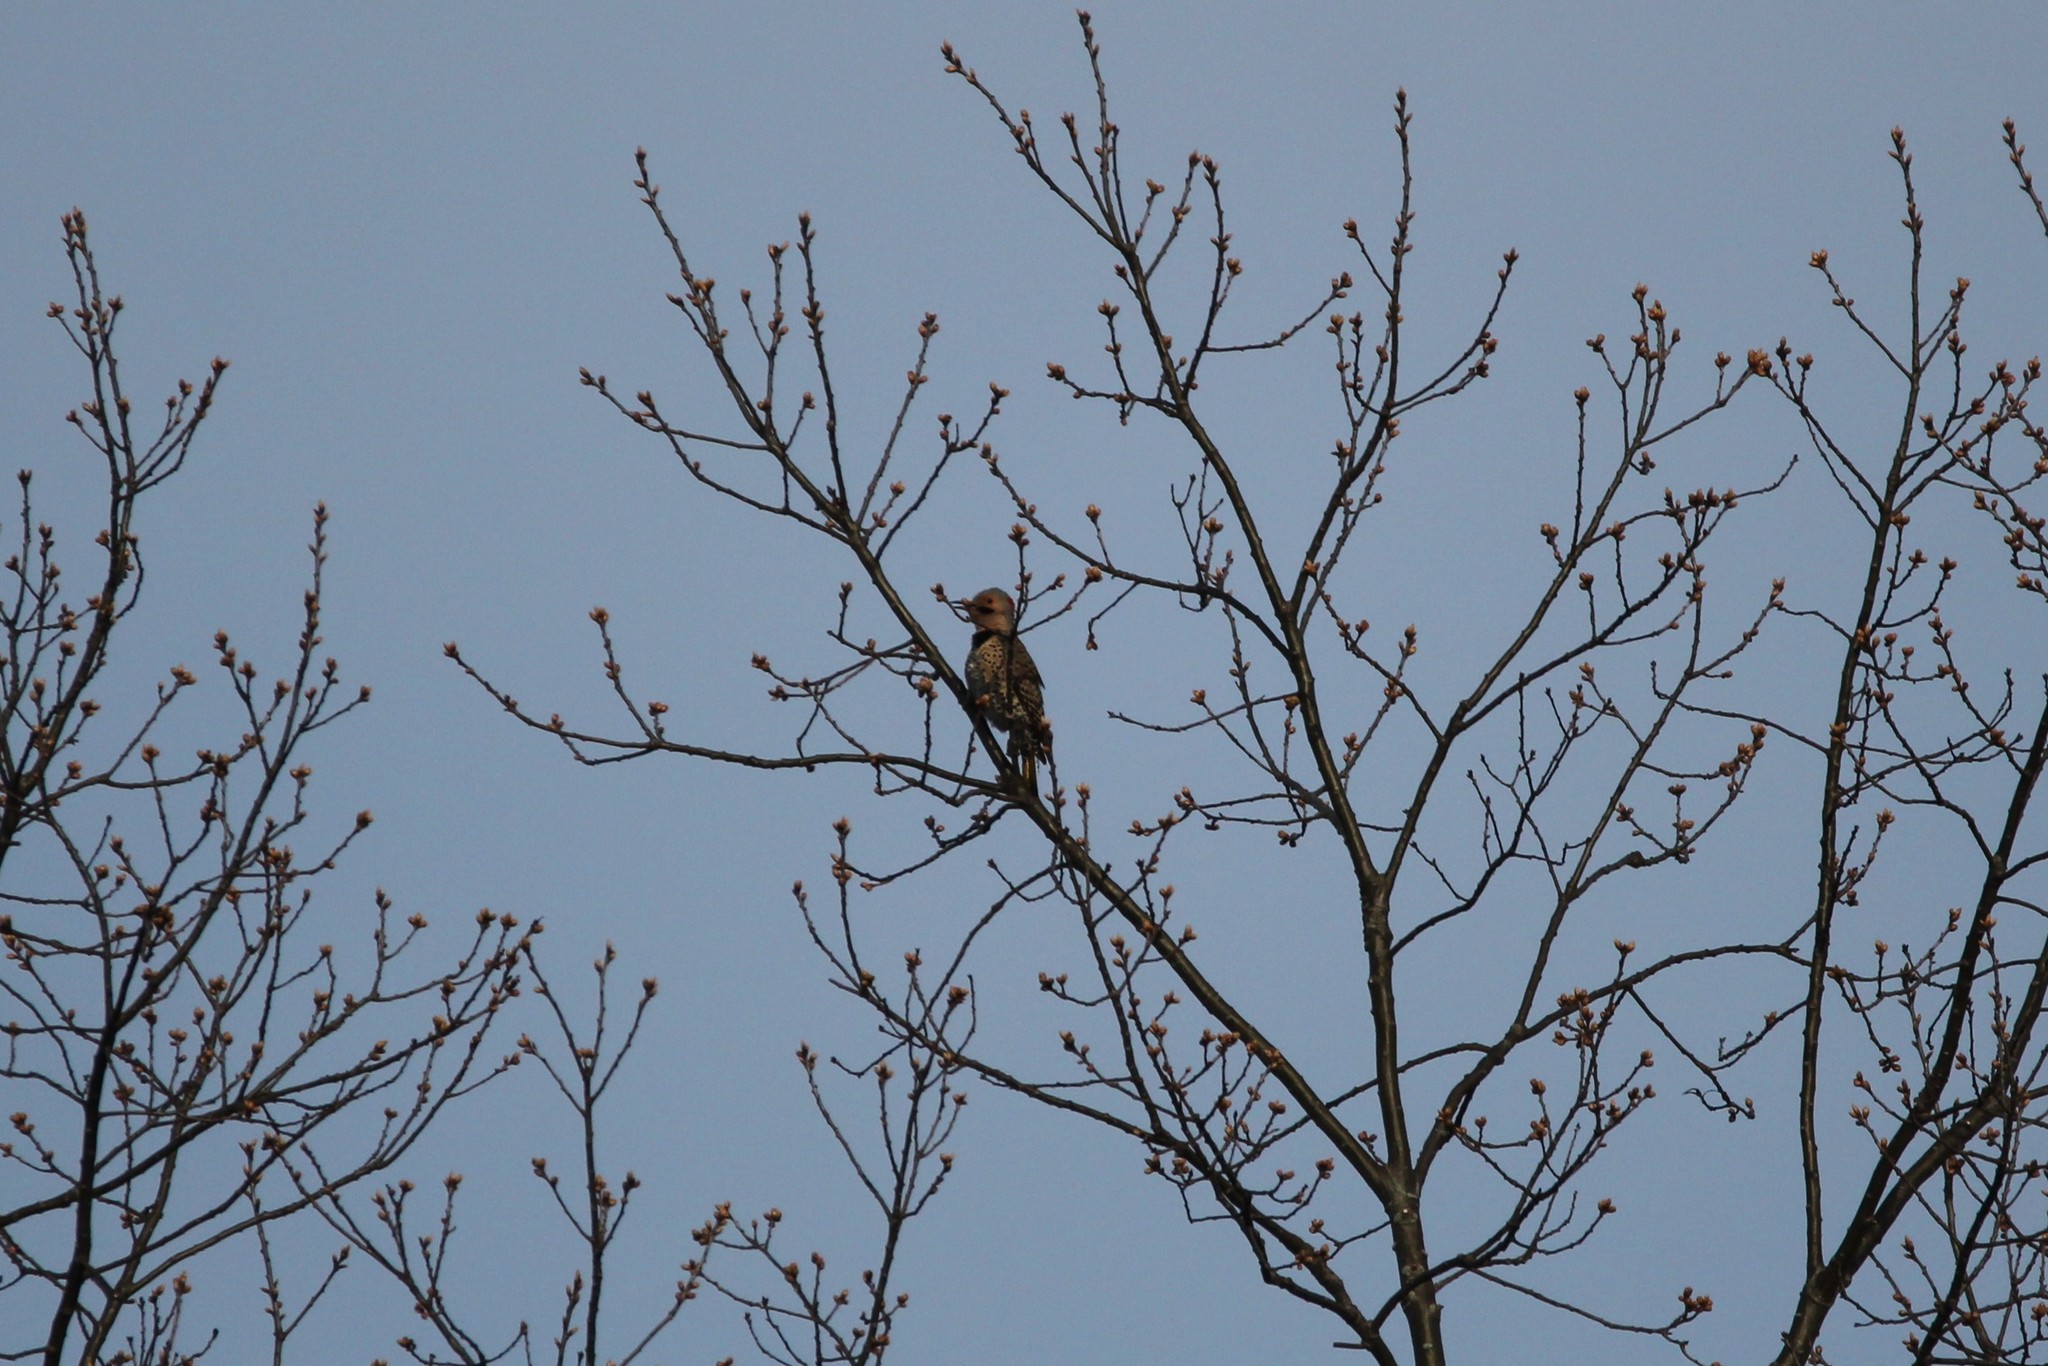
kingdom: Animalia
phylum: Chordata
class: Aves
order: Piciformes
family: Picidae
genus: Colaptes
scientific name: Colaptes auratus
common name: Northern flicker
